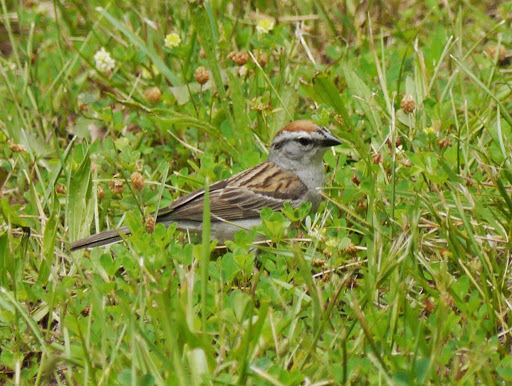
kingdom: Animalia
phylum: Chordata
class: Aves
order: Passeriformes
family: Passerellidae
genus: Spizella
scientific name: Spizella passerina
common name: Chipping sparrow
